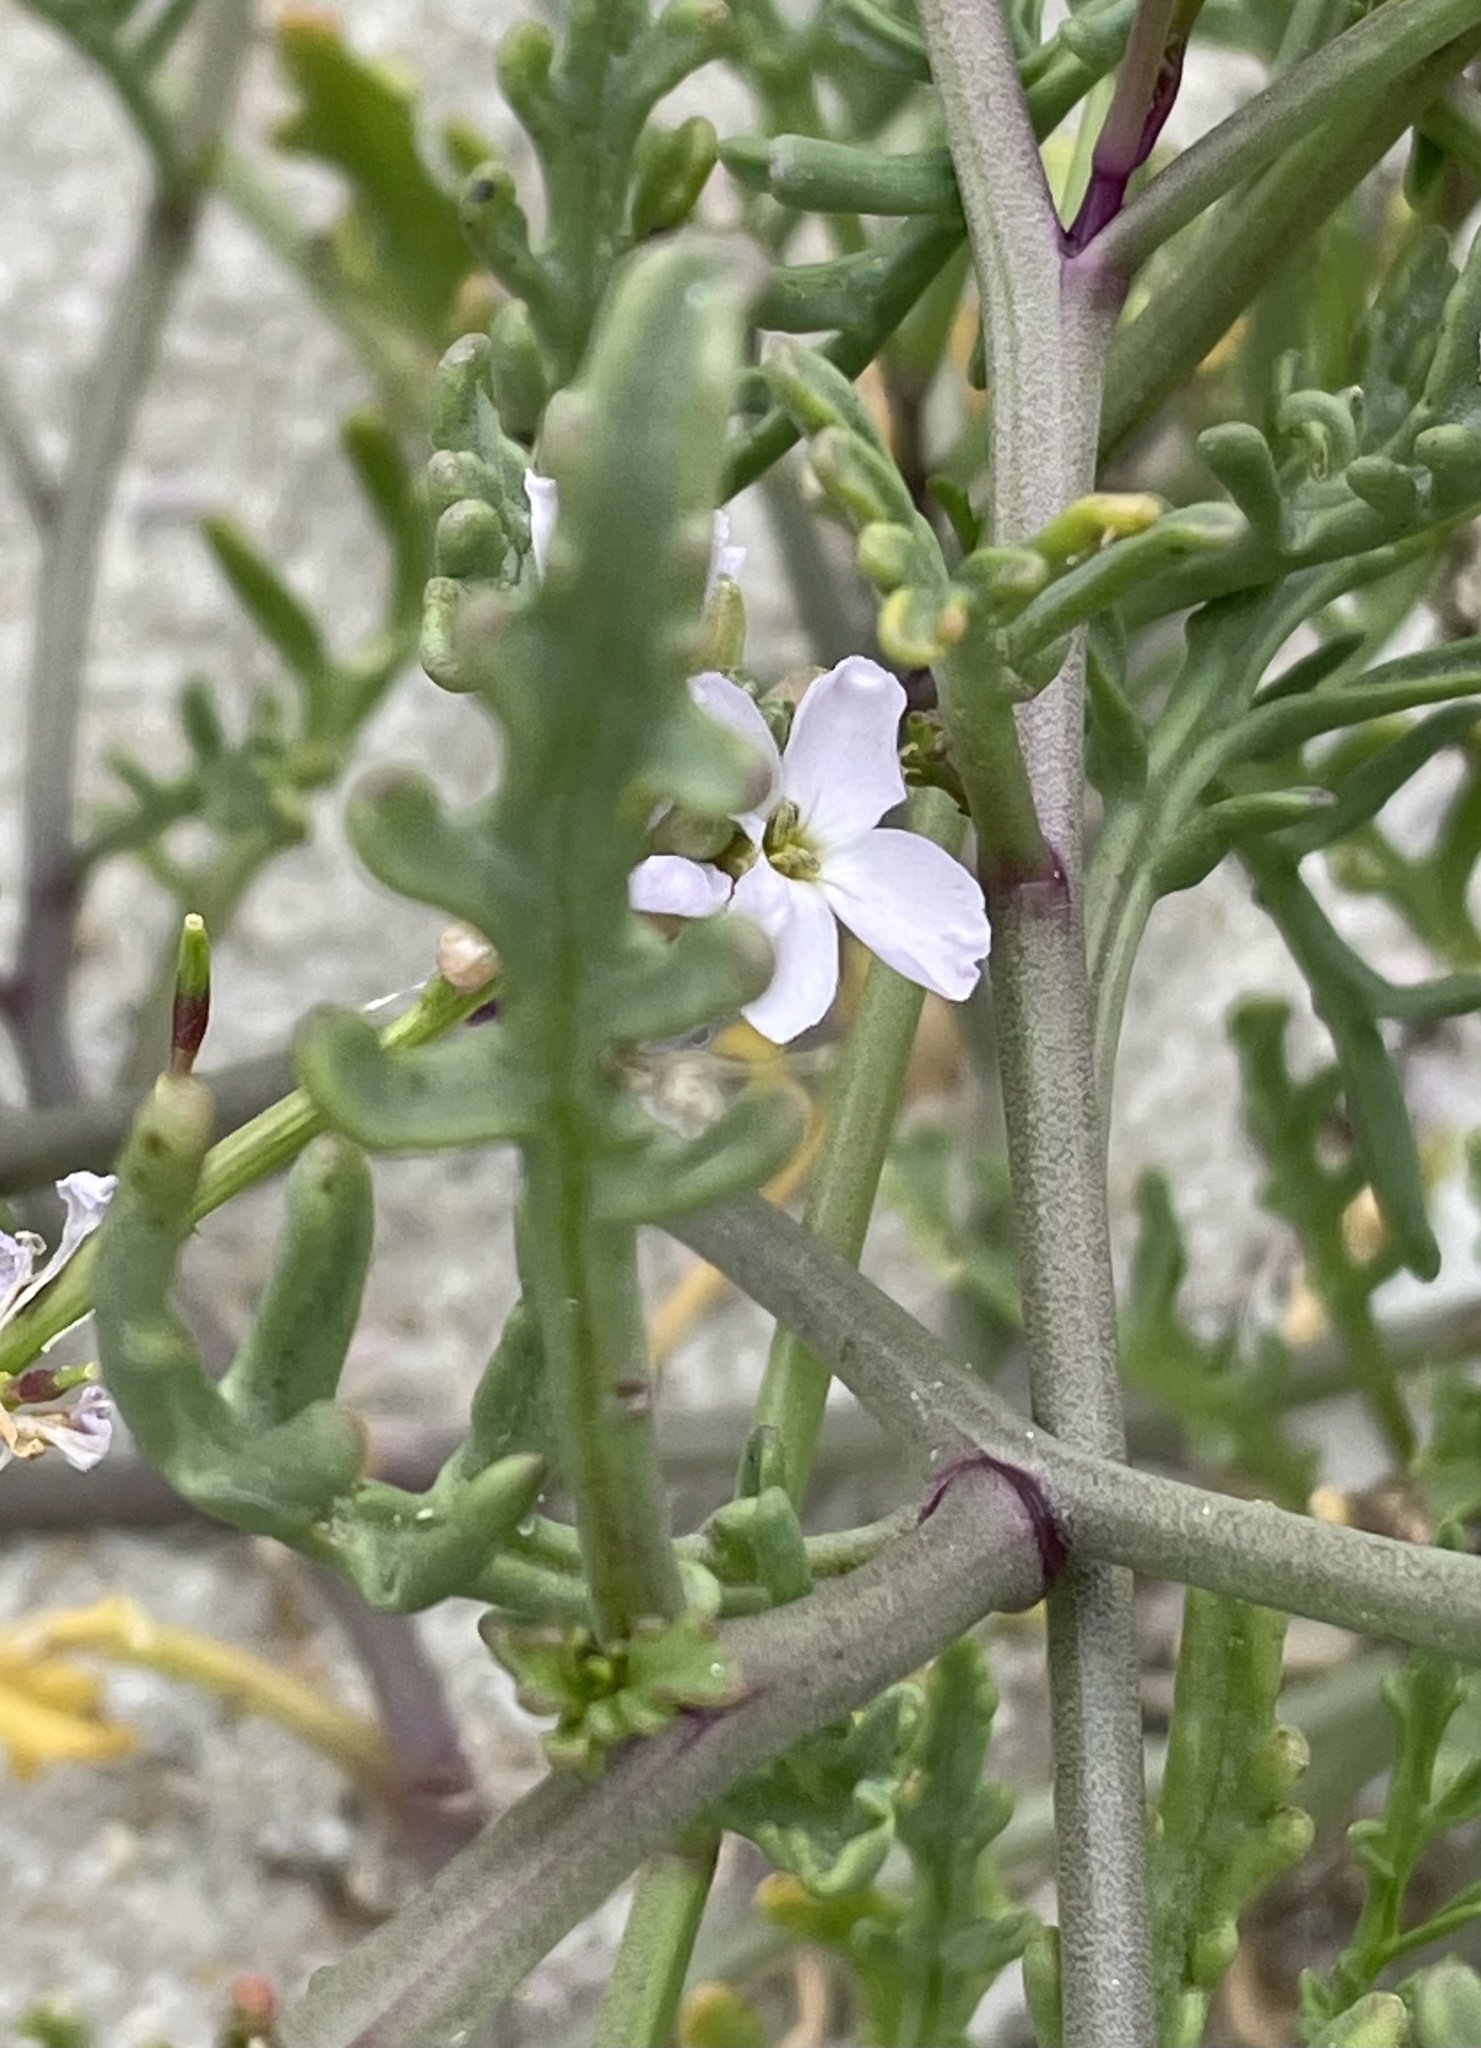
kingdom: Plantae
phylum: Tracheophyta
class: Magnoliopsida
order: Brassicales
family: Brassicaceae
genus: Cakile
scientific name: Cakile maritima
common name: Sea rocket
